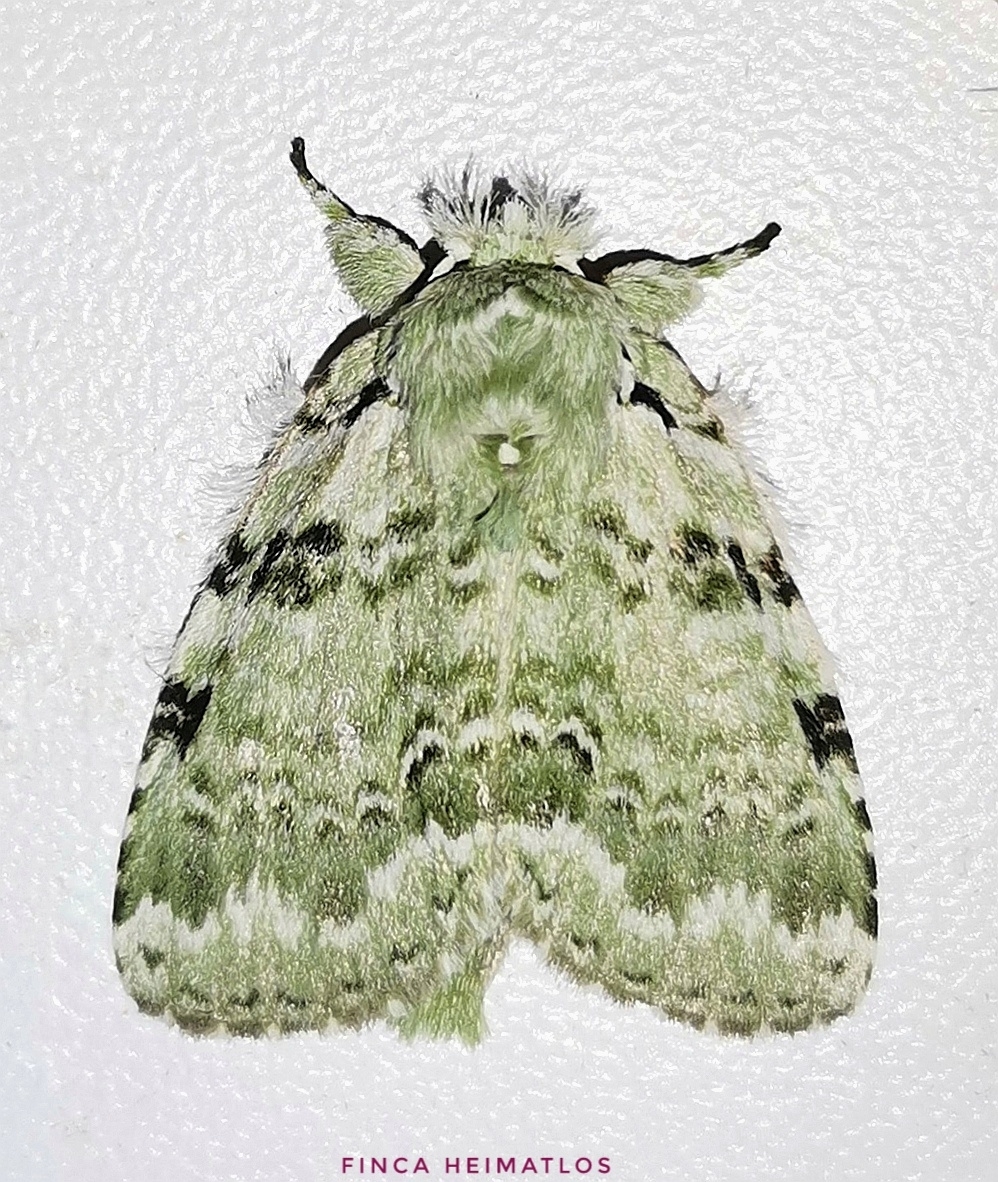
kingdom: Animalia
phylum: Arthropoda
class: Insecta
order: Lepidoptera
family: Notodontidae
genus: Salluca
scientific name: Salluca psittica
